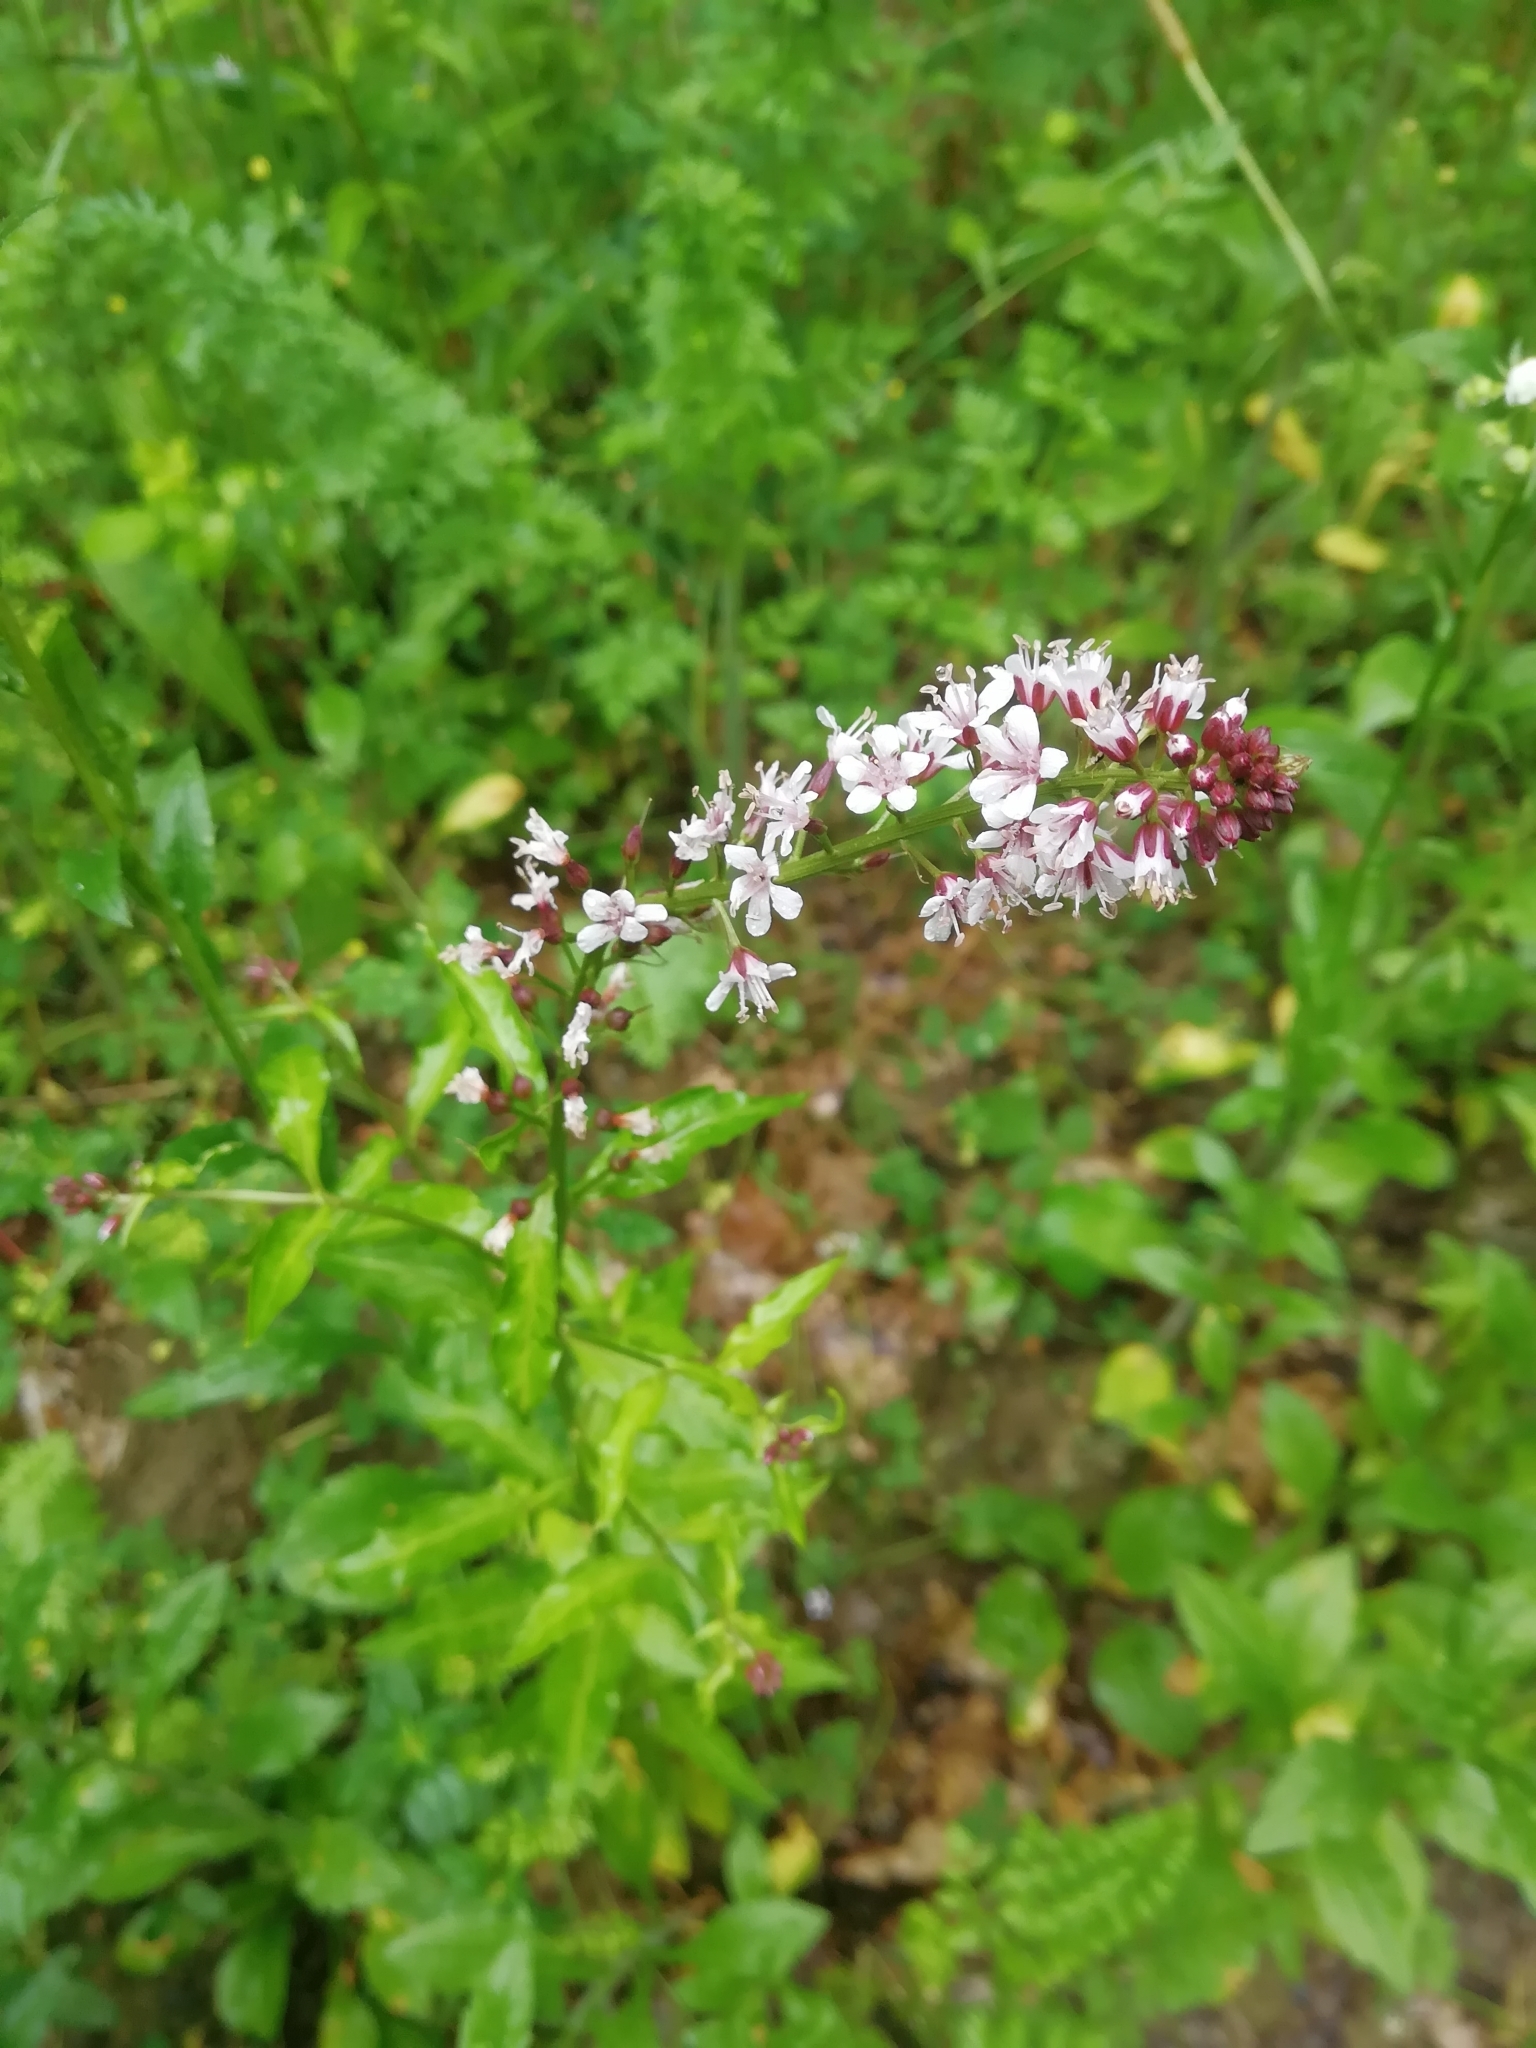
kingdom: Plantae
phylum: Tracheophyta
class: Magnoliopsida
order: Ericales
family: Primulaceae
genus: Lysimachia
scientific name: Lysimachia dubia
